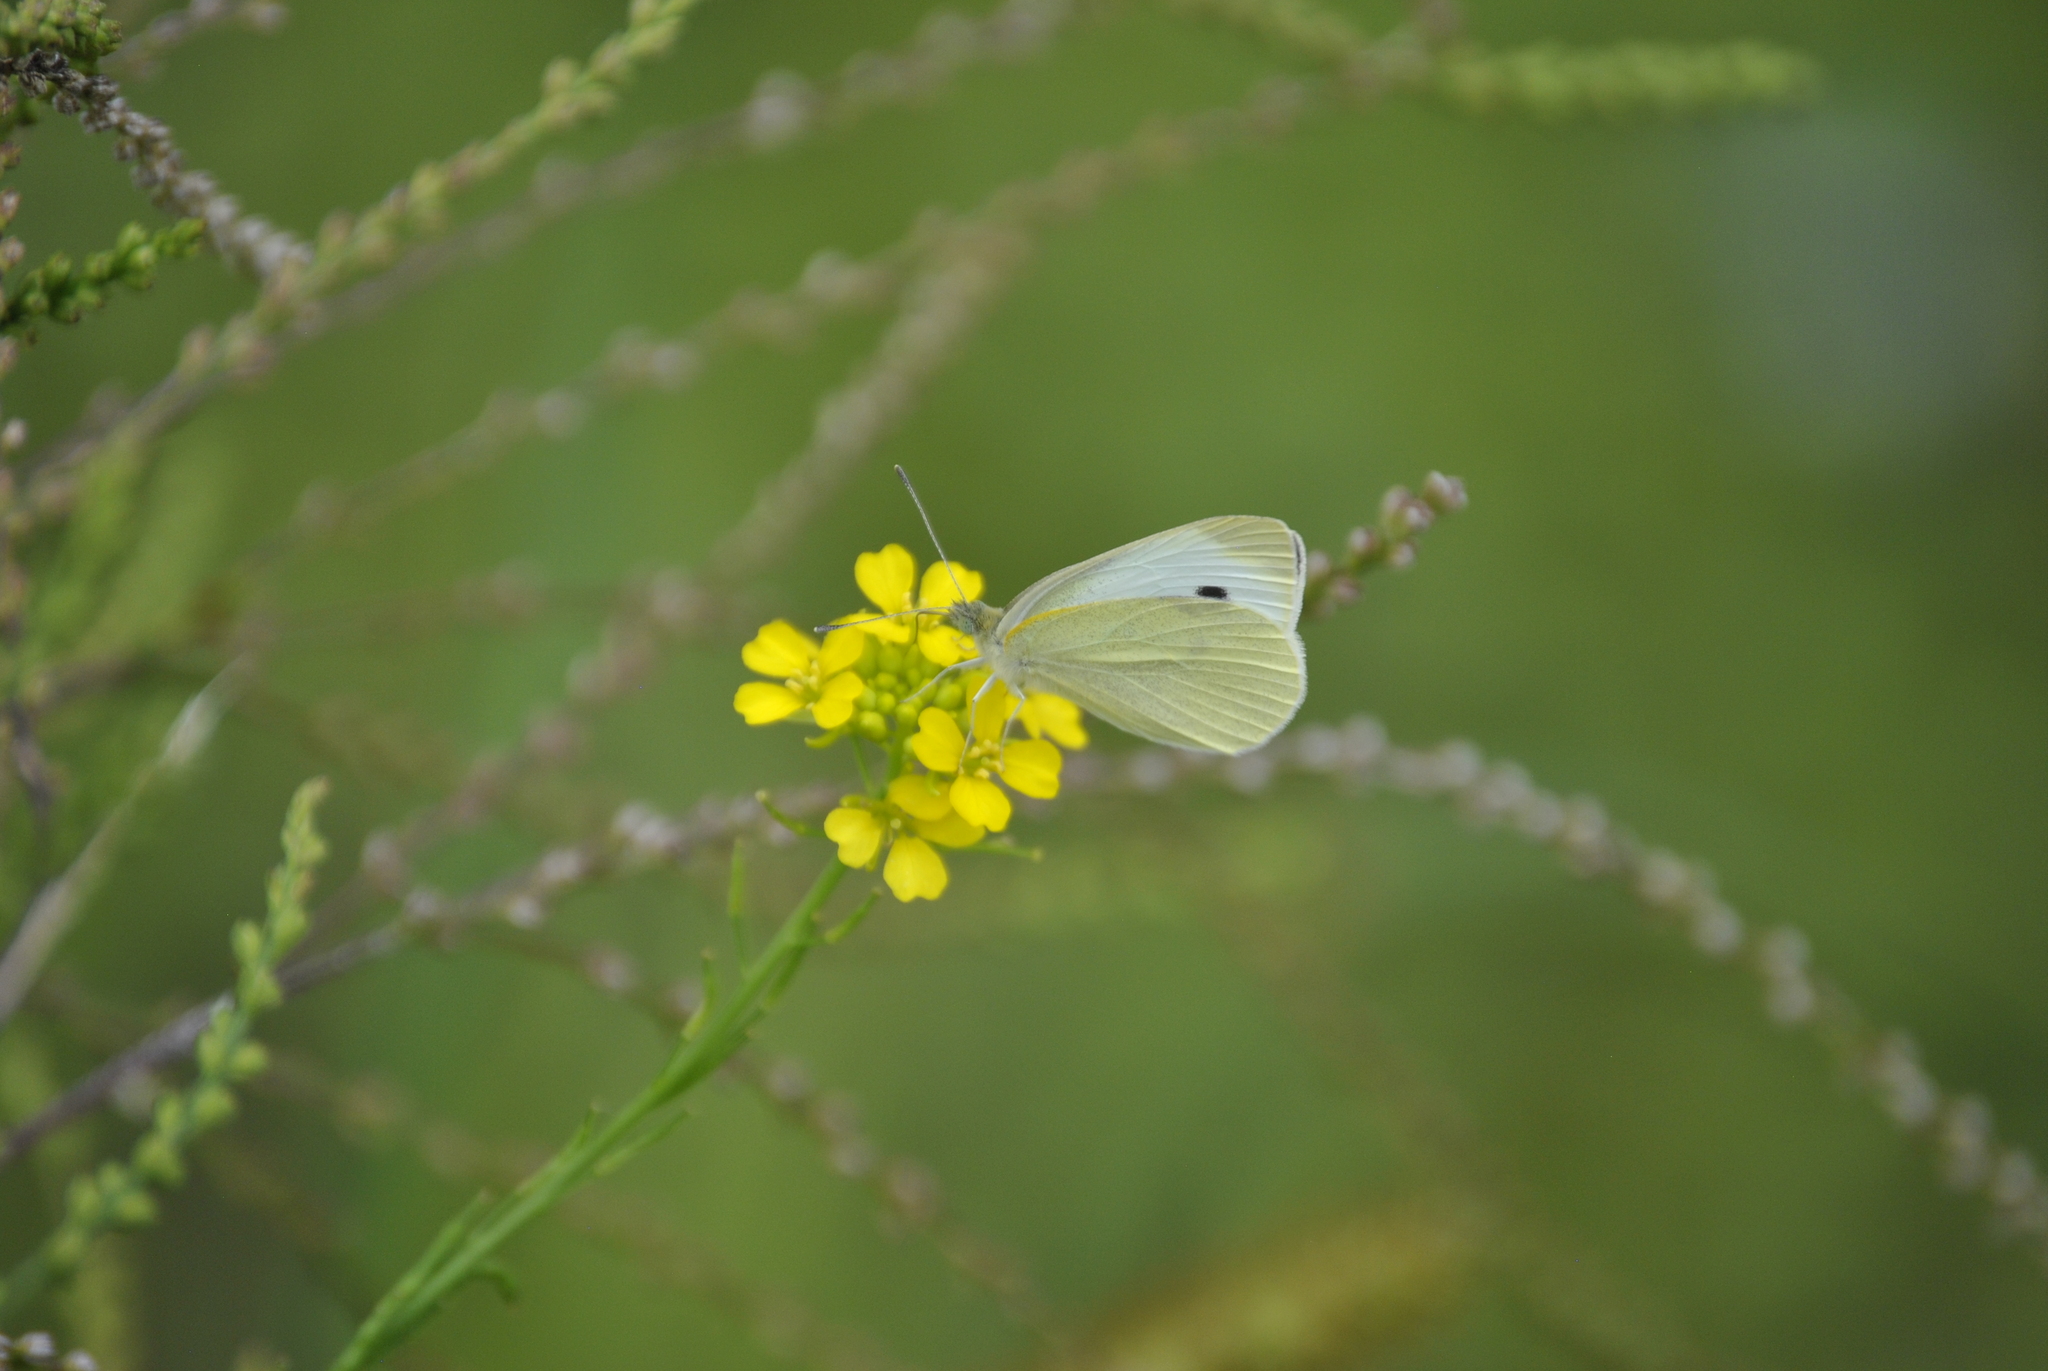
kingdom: Animalia
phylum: Arthropoda
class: Insecta
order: Lepidoptera
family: Pieridae
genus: Pieris
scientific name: Pieris rapae
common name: Small white
